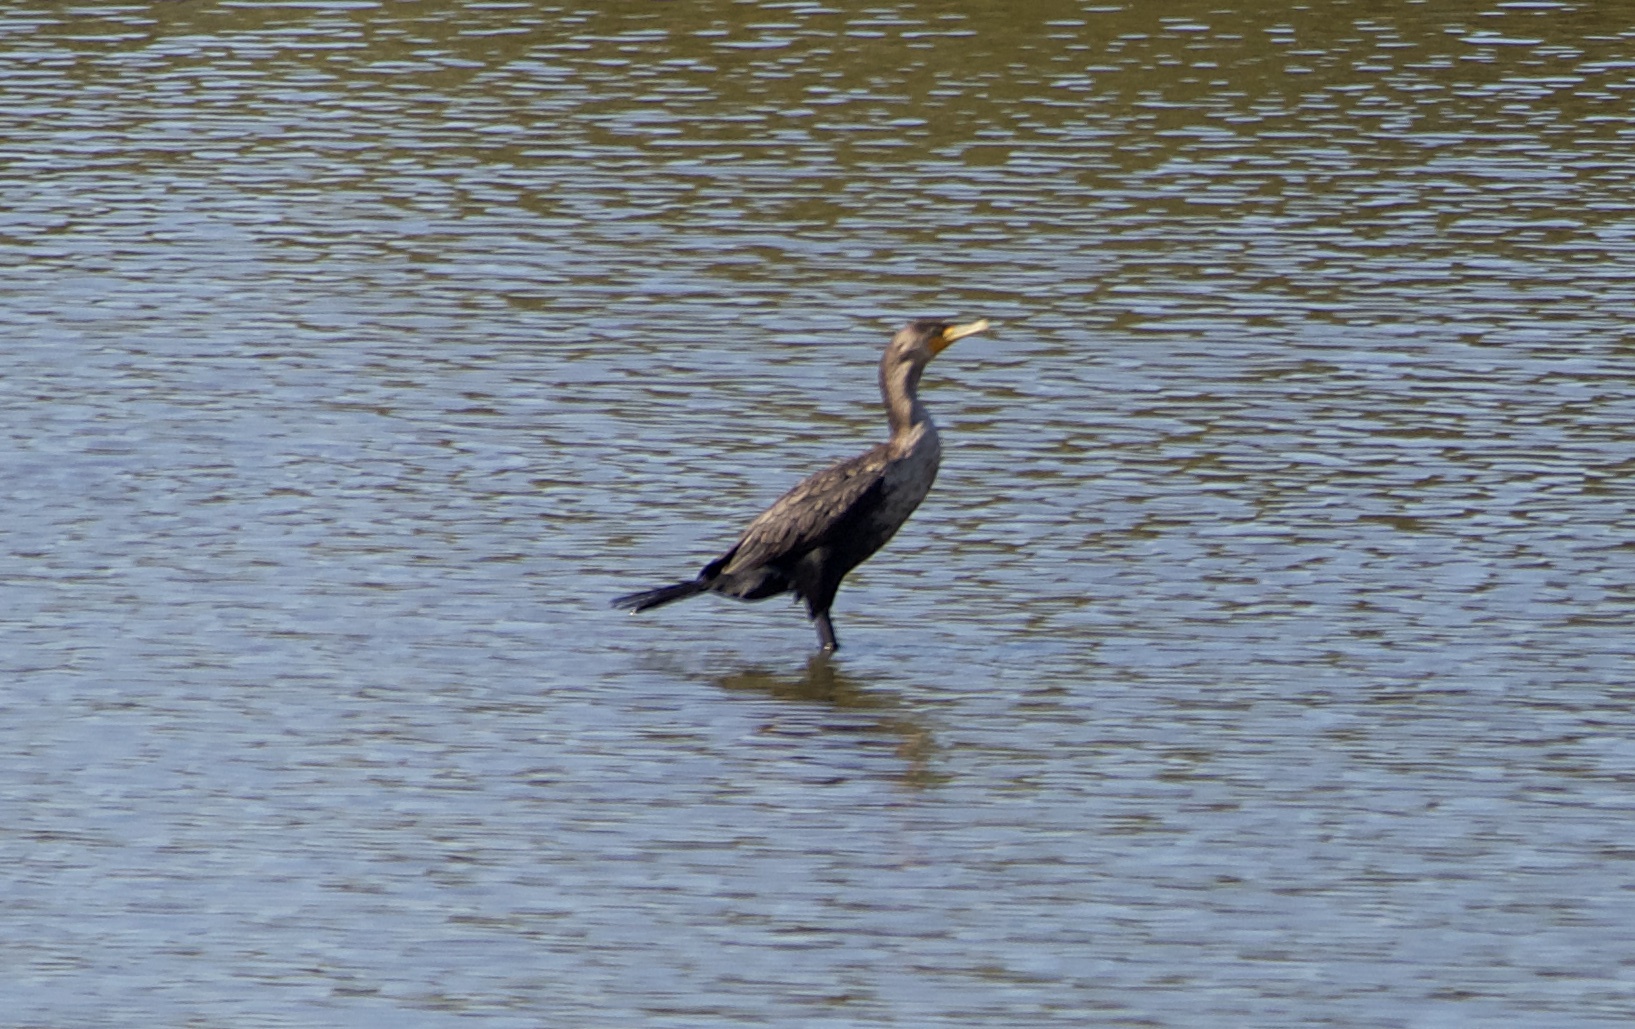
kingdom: Animalia
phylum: Chordata
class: Aves
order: Suliformes
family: Phalacrocoracidae
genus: Phalacrocorax
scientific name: Phalacrocorax auritus
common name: Double-crested cormorant
